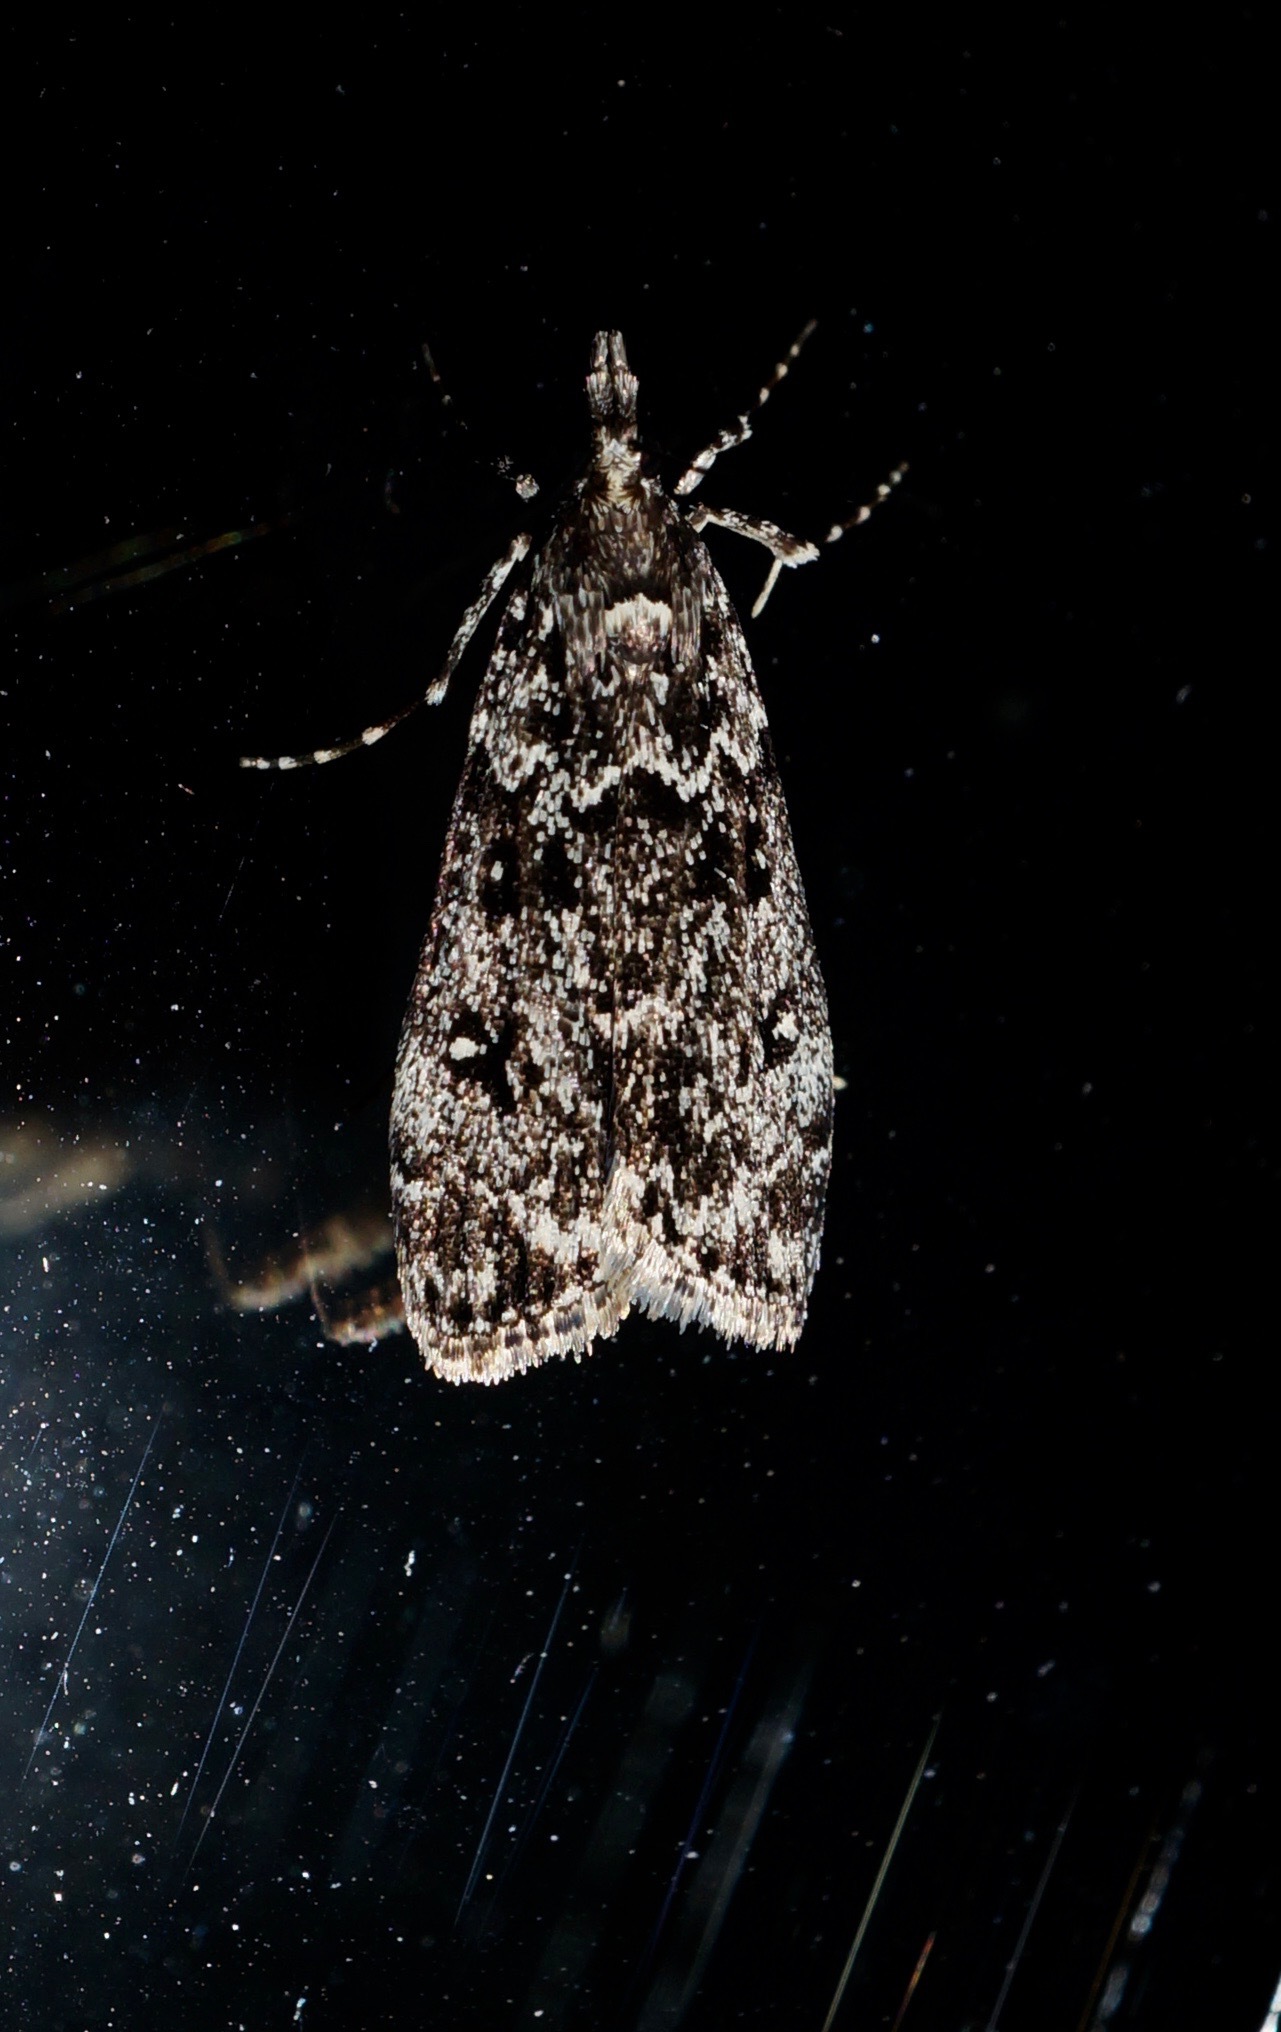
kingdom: Animalia
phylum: Arthropoda
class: Insecta
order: Lepidoptera
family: Crambidae
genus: Eudonia
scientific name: Eudonia philerga
